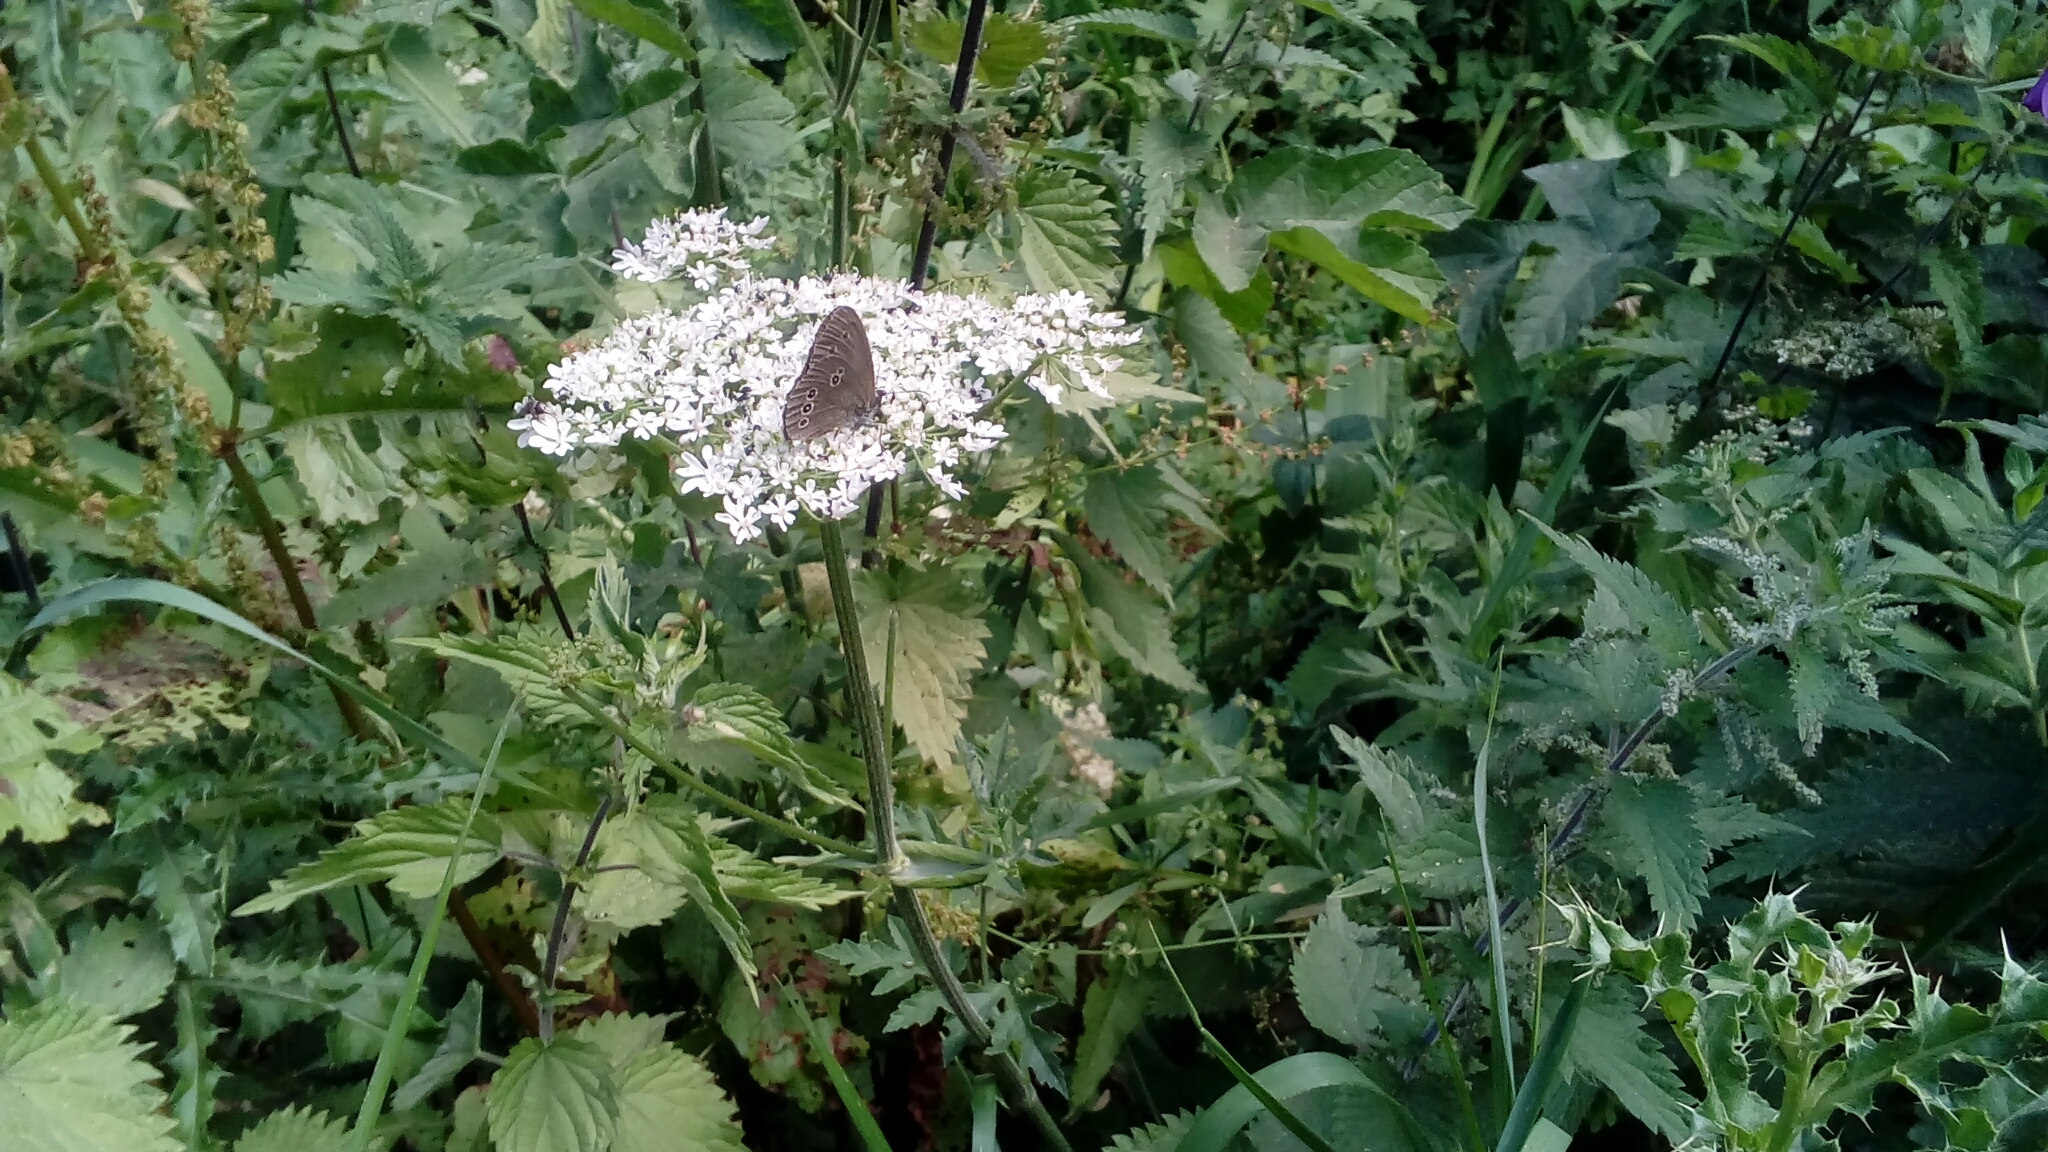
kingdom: Animalia
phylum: Arthropoda
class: Insecta
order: Lepidoptera
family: Nymphalidae
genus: Aphantopus
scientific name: Aphantopus hyperantus
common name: Ringlet
